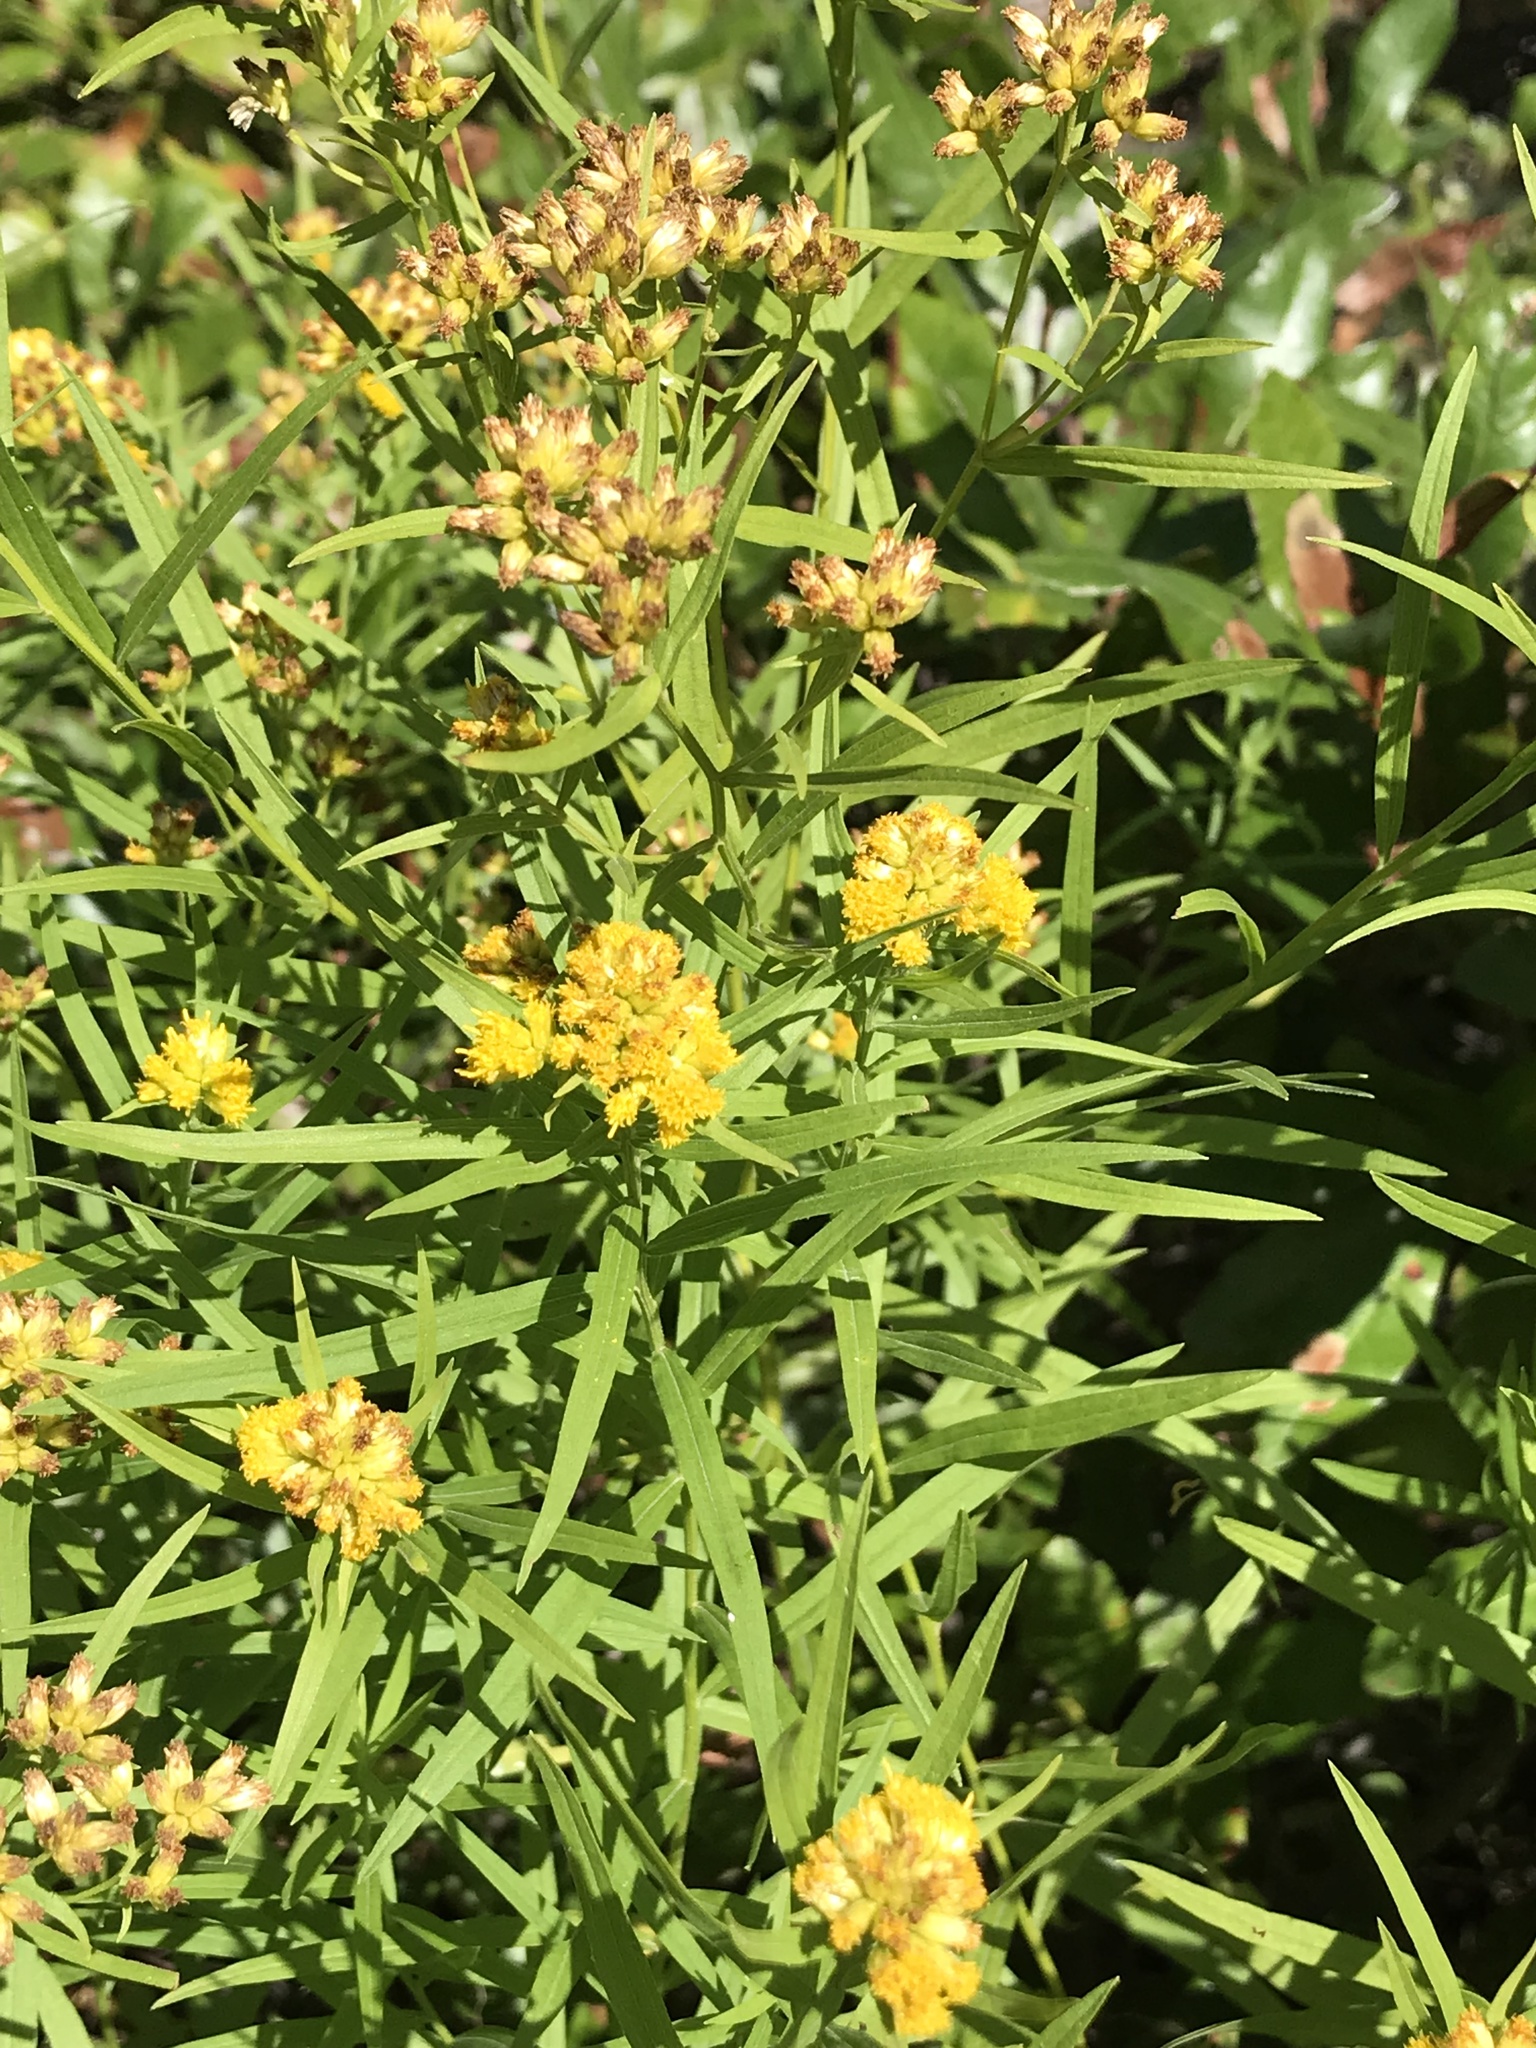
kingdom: Plantae
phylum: Tracheophyta
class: Magnoliopsida
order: Asterales
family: Asteraceae
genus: Euthamia
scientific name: Euthamia graminifolia
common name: Common goldentop
